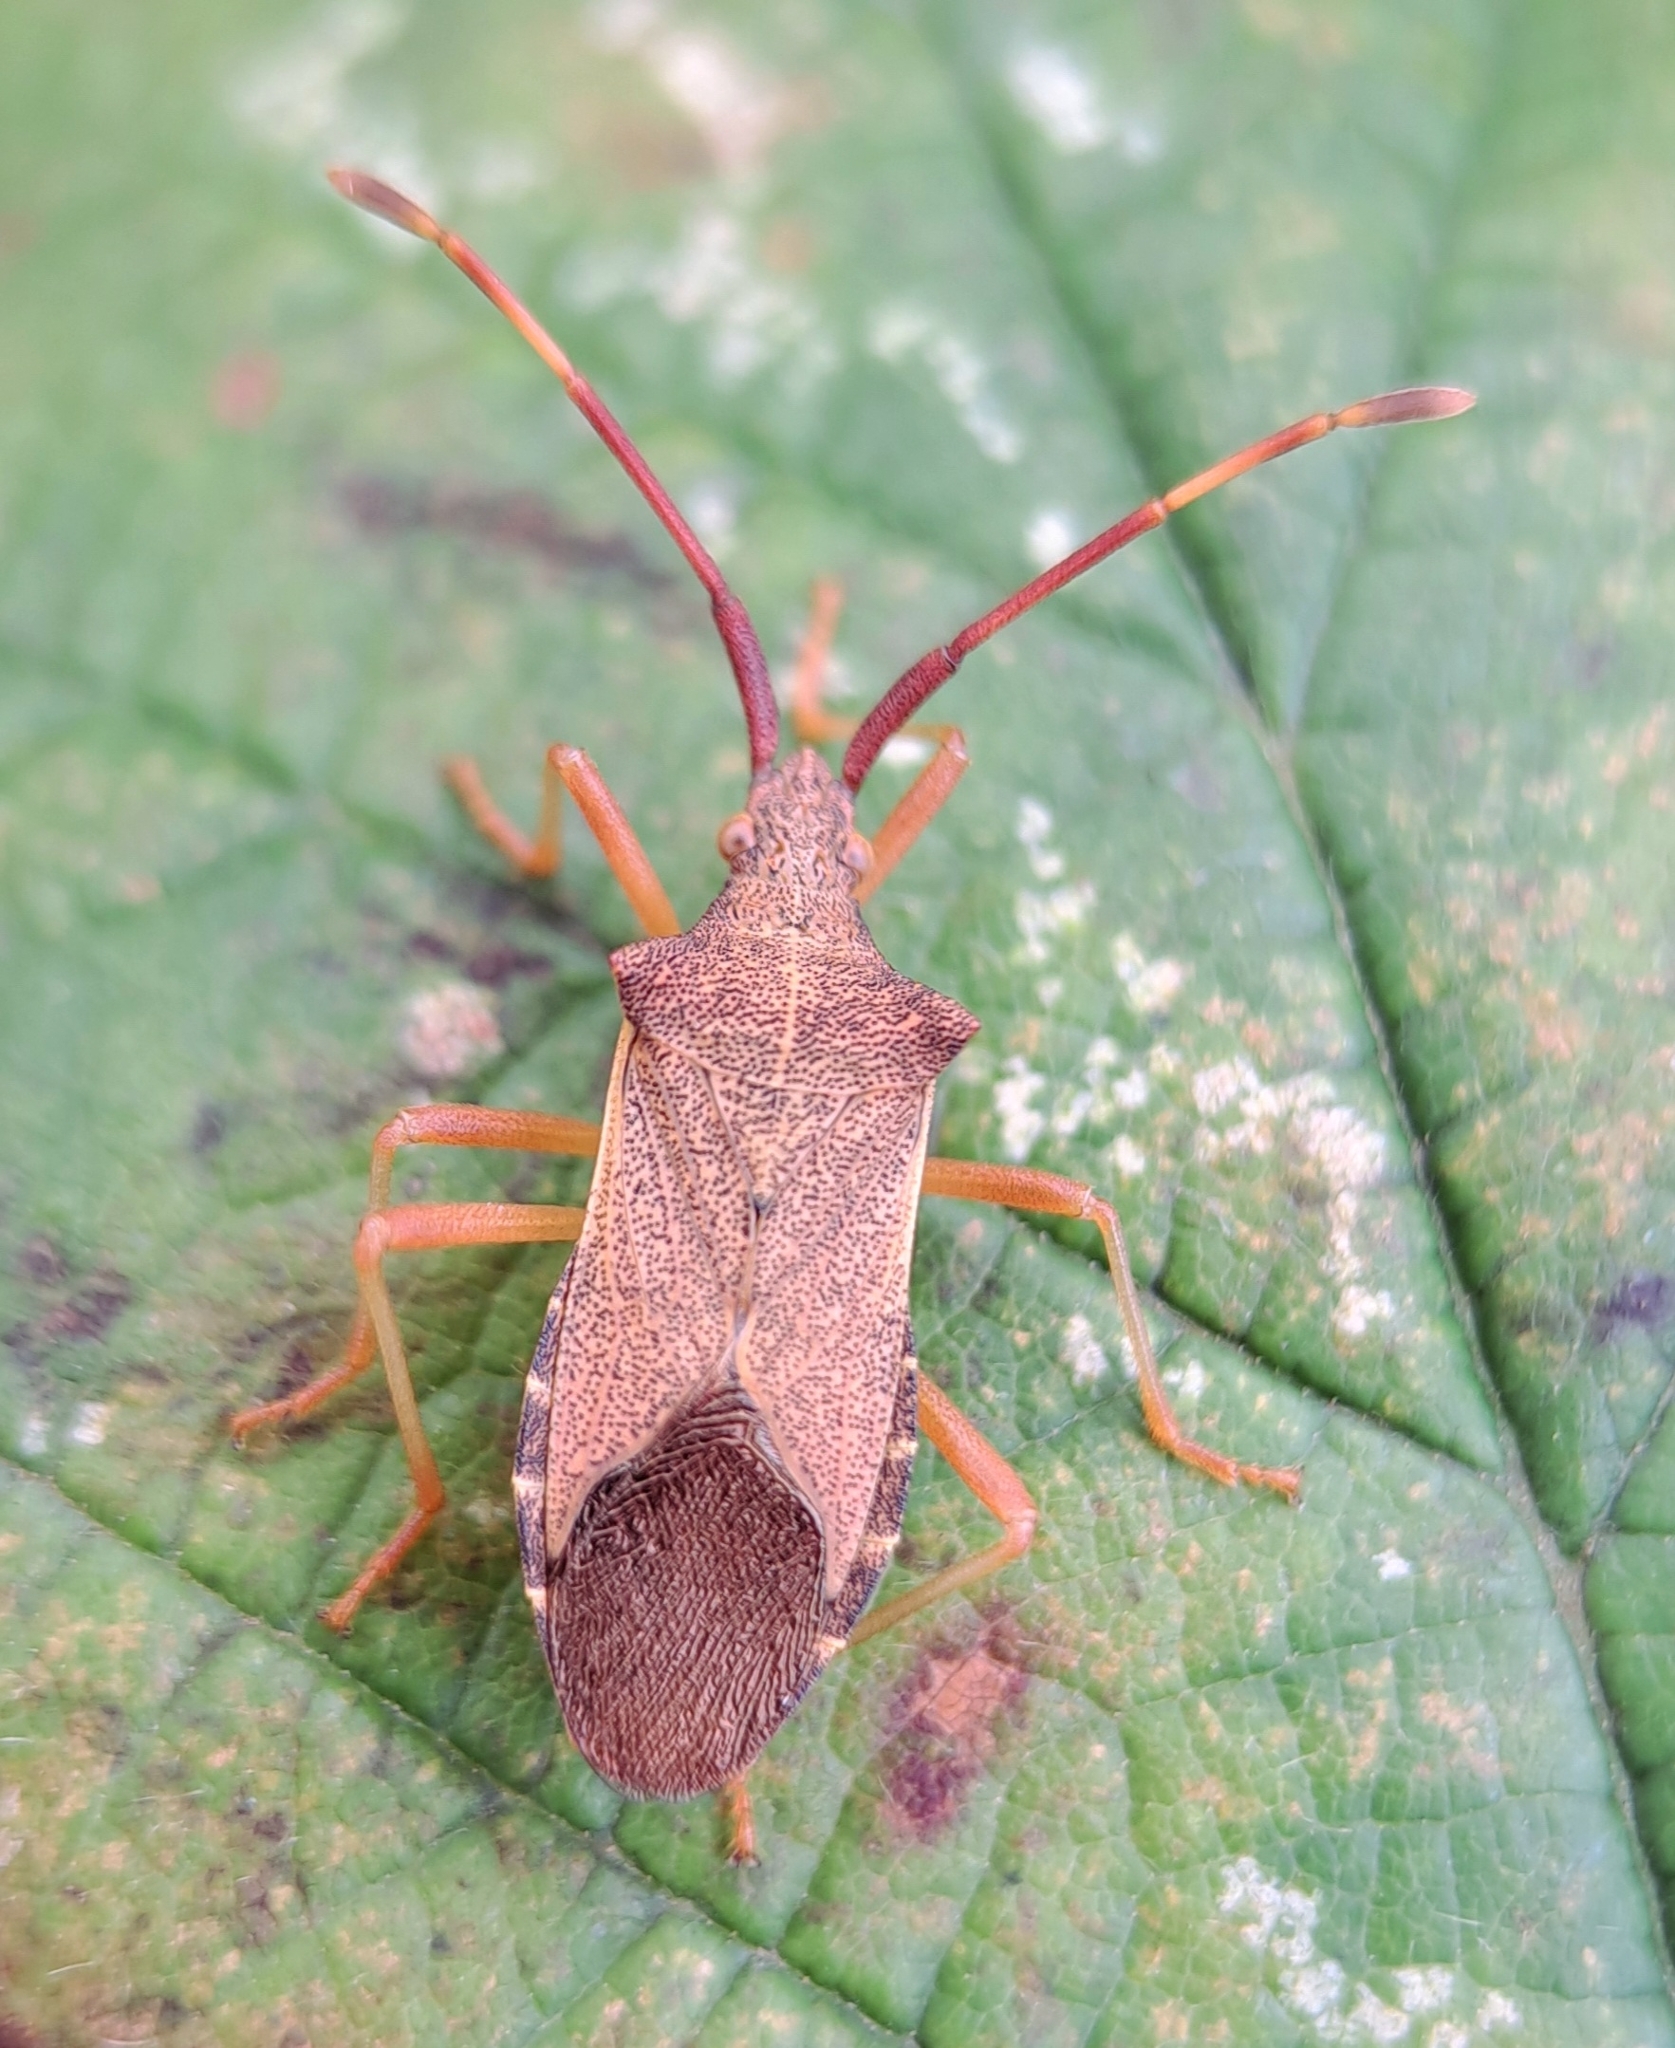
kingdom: Animalia
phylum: Arthropoda
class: Insecta
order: Hemiptera
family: Coreidae
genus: Gonocerus
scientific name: Gonocerus acuteangulatus
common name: Box bug
